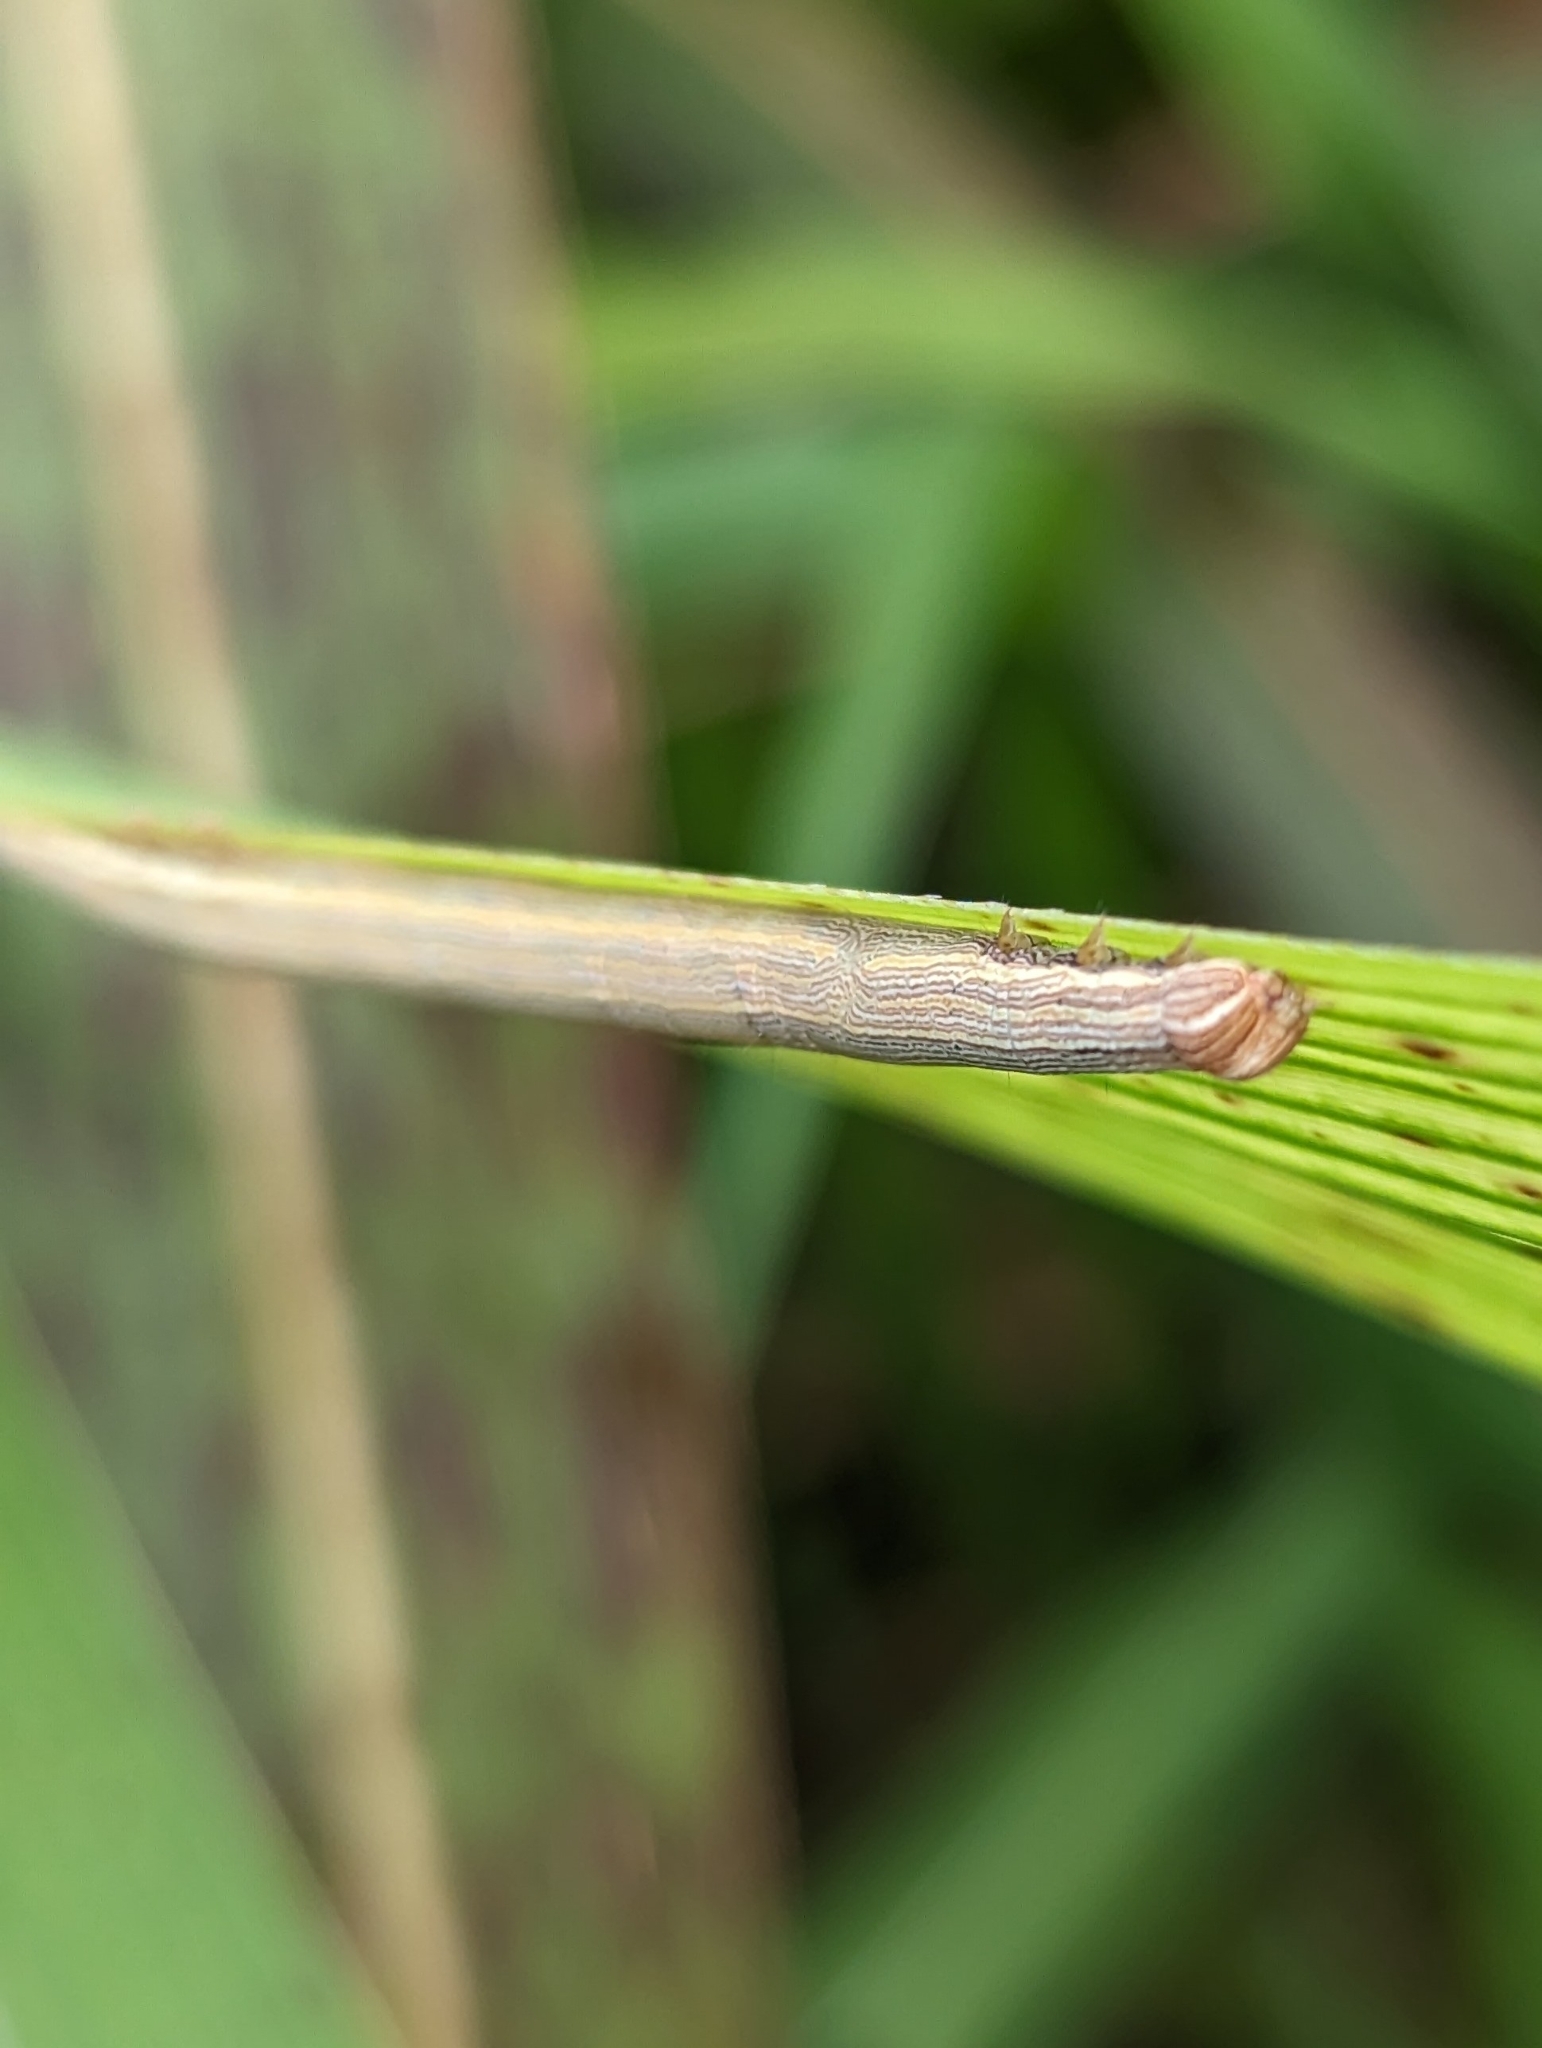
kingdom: Animalia
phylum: Arthropoda
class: Insecta
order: Lepidoptera
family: Erebidae
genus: Mocis
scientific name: Mocis frugalis
